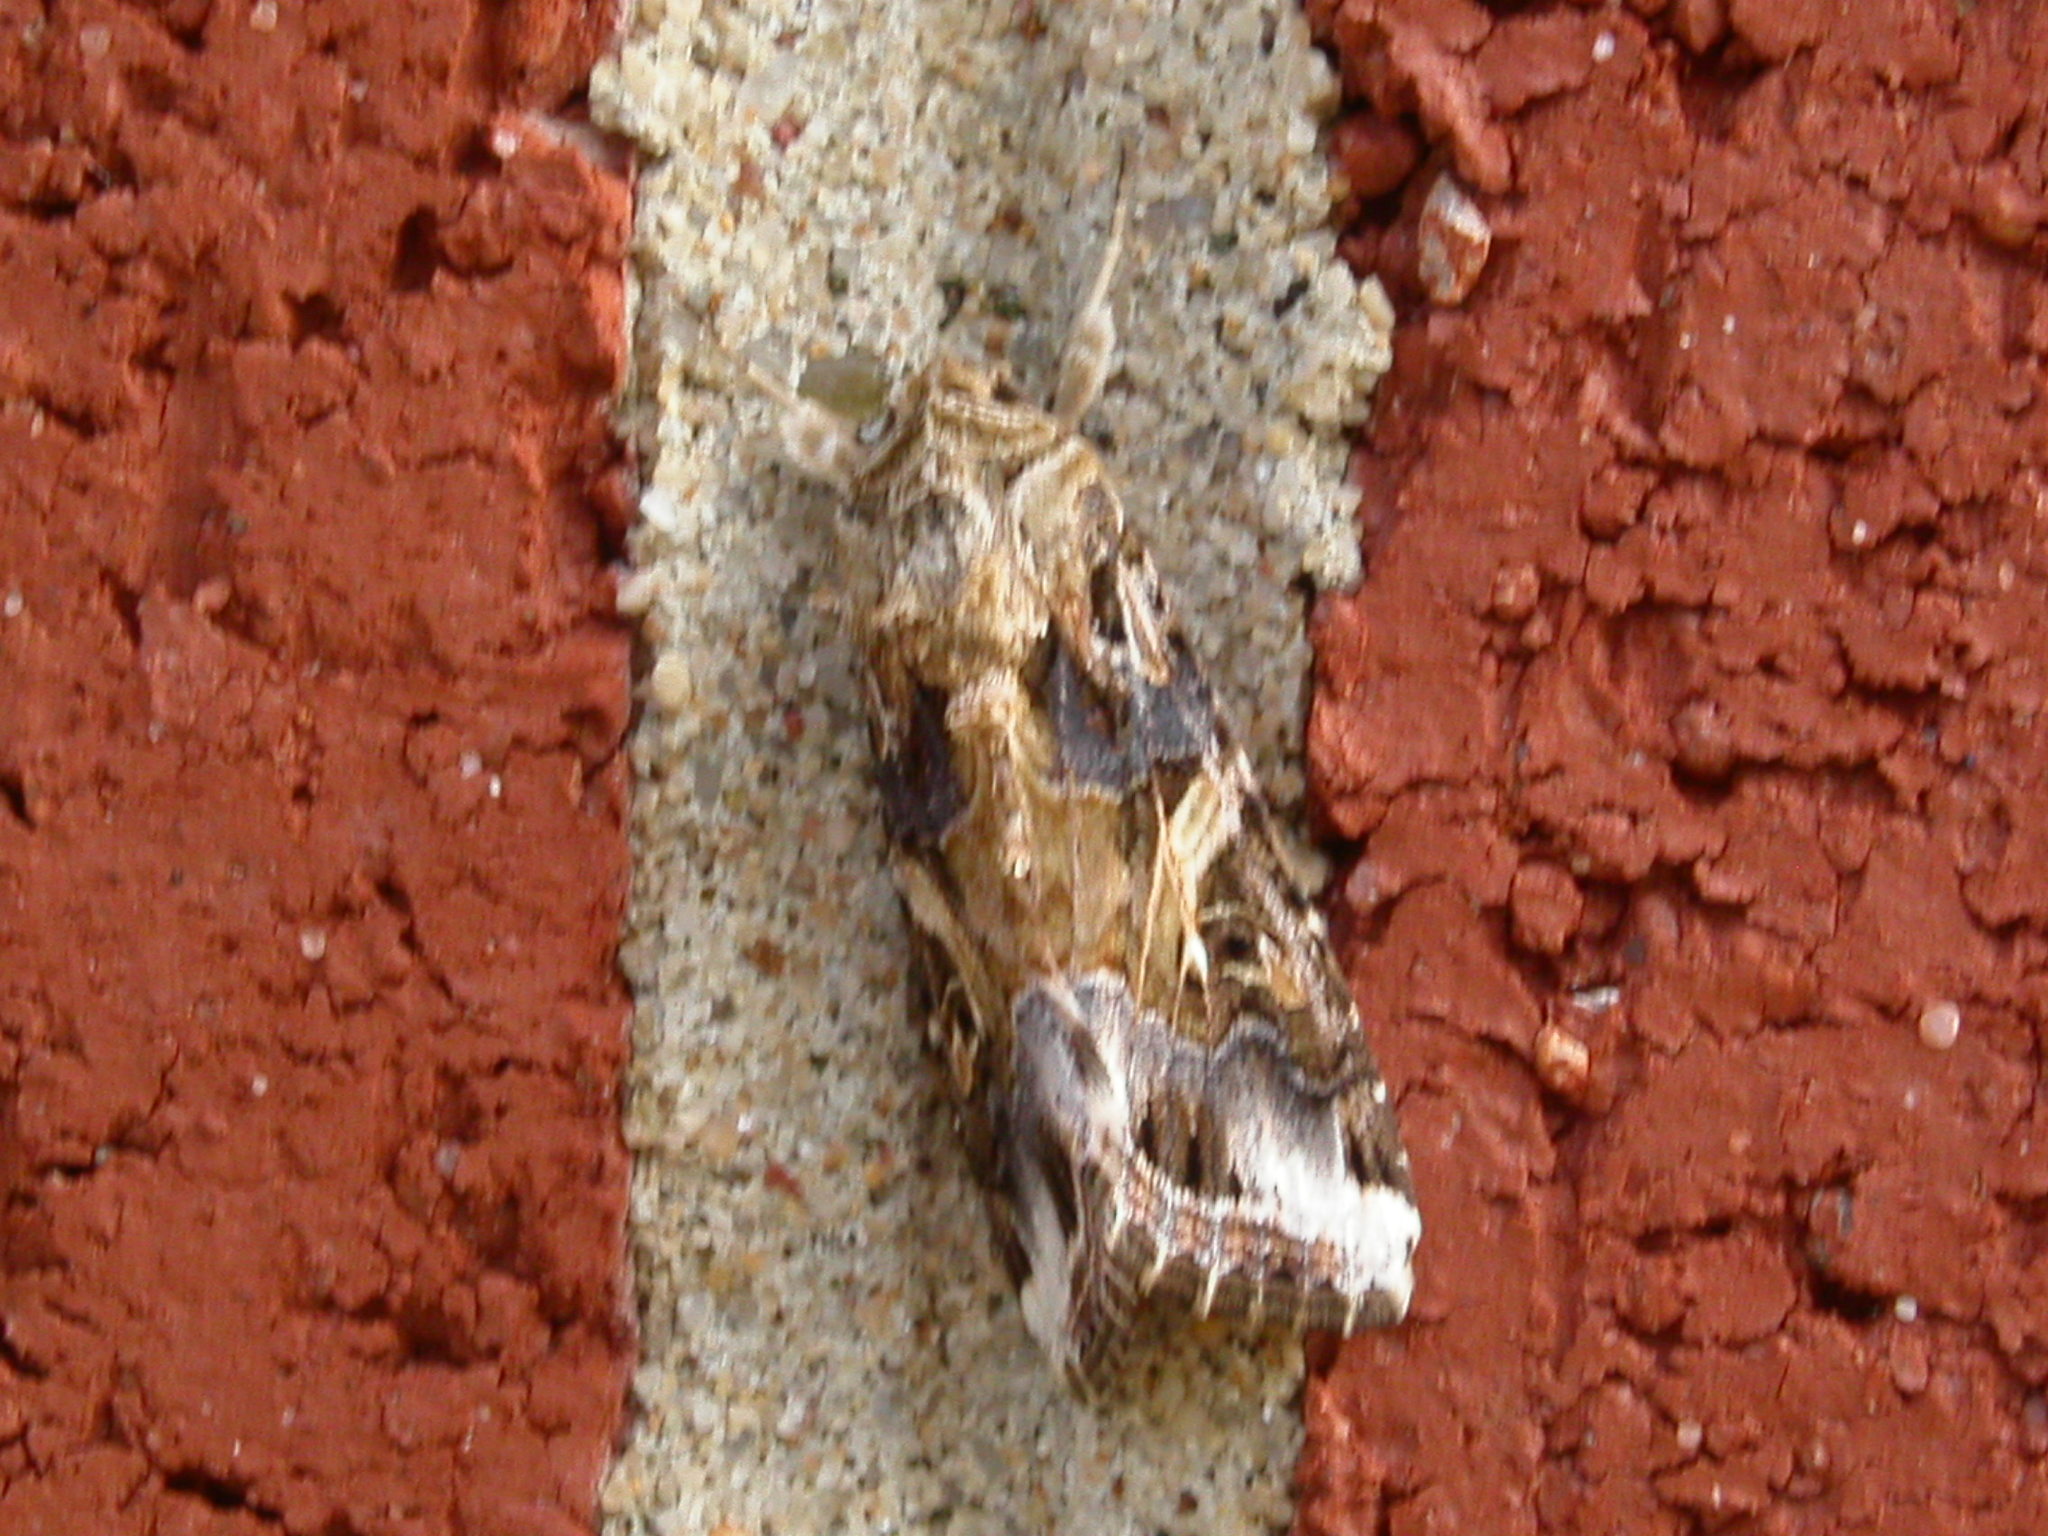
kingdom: Animalia
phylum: Arthropoda
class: Insecta
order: Lepidoptera
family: Noctuidae
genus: Spodoptera
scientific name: Spodoptera ornithogalli
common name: Yellow-striped armyworm
